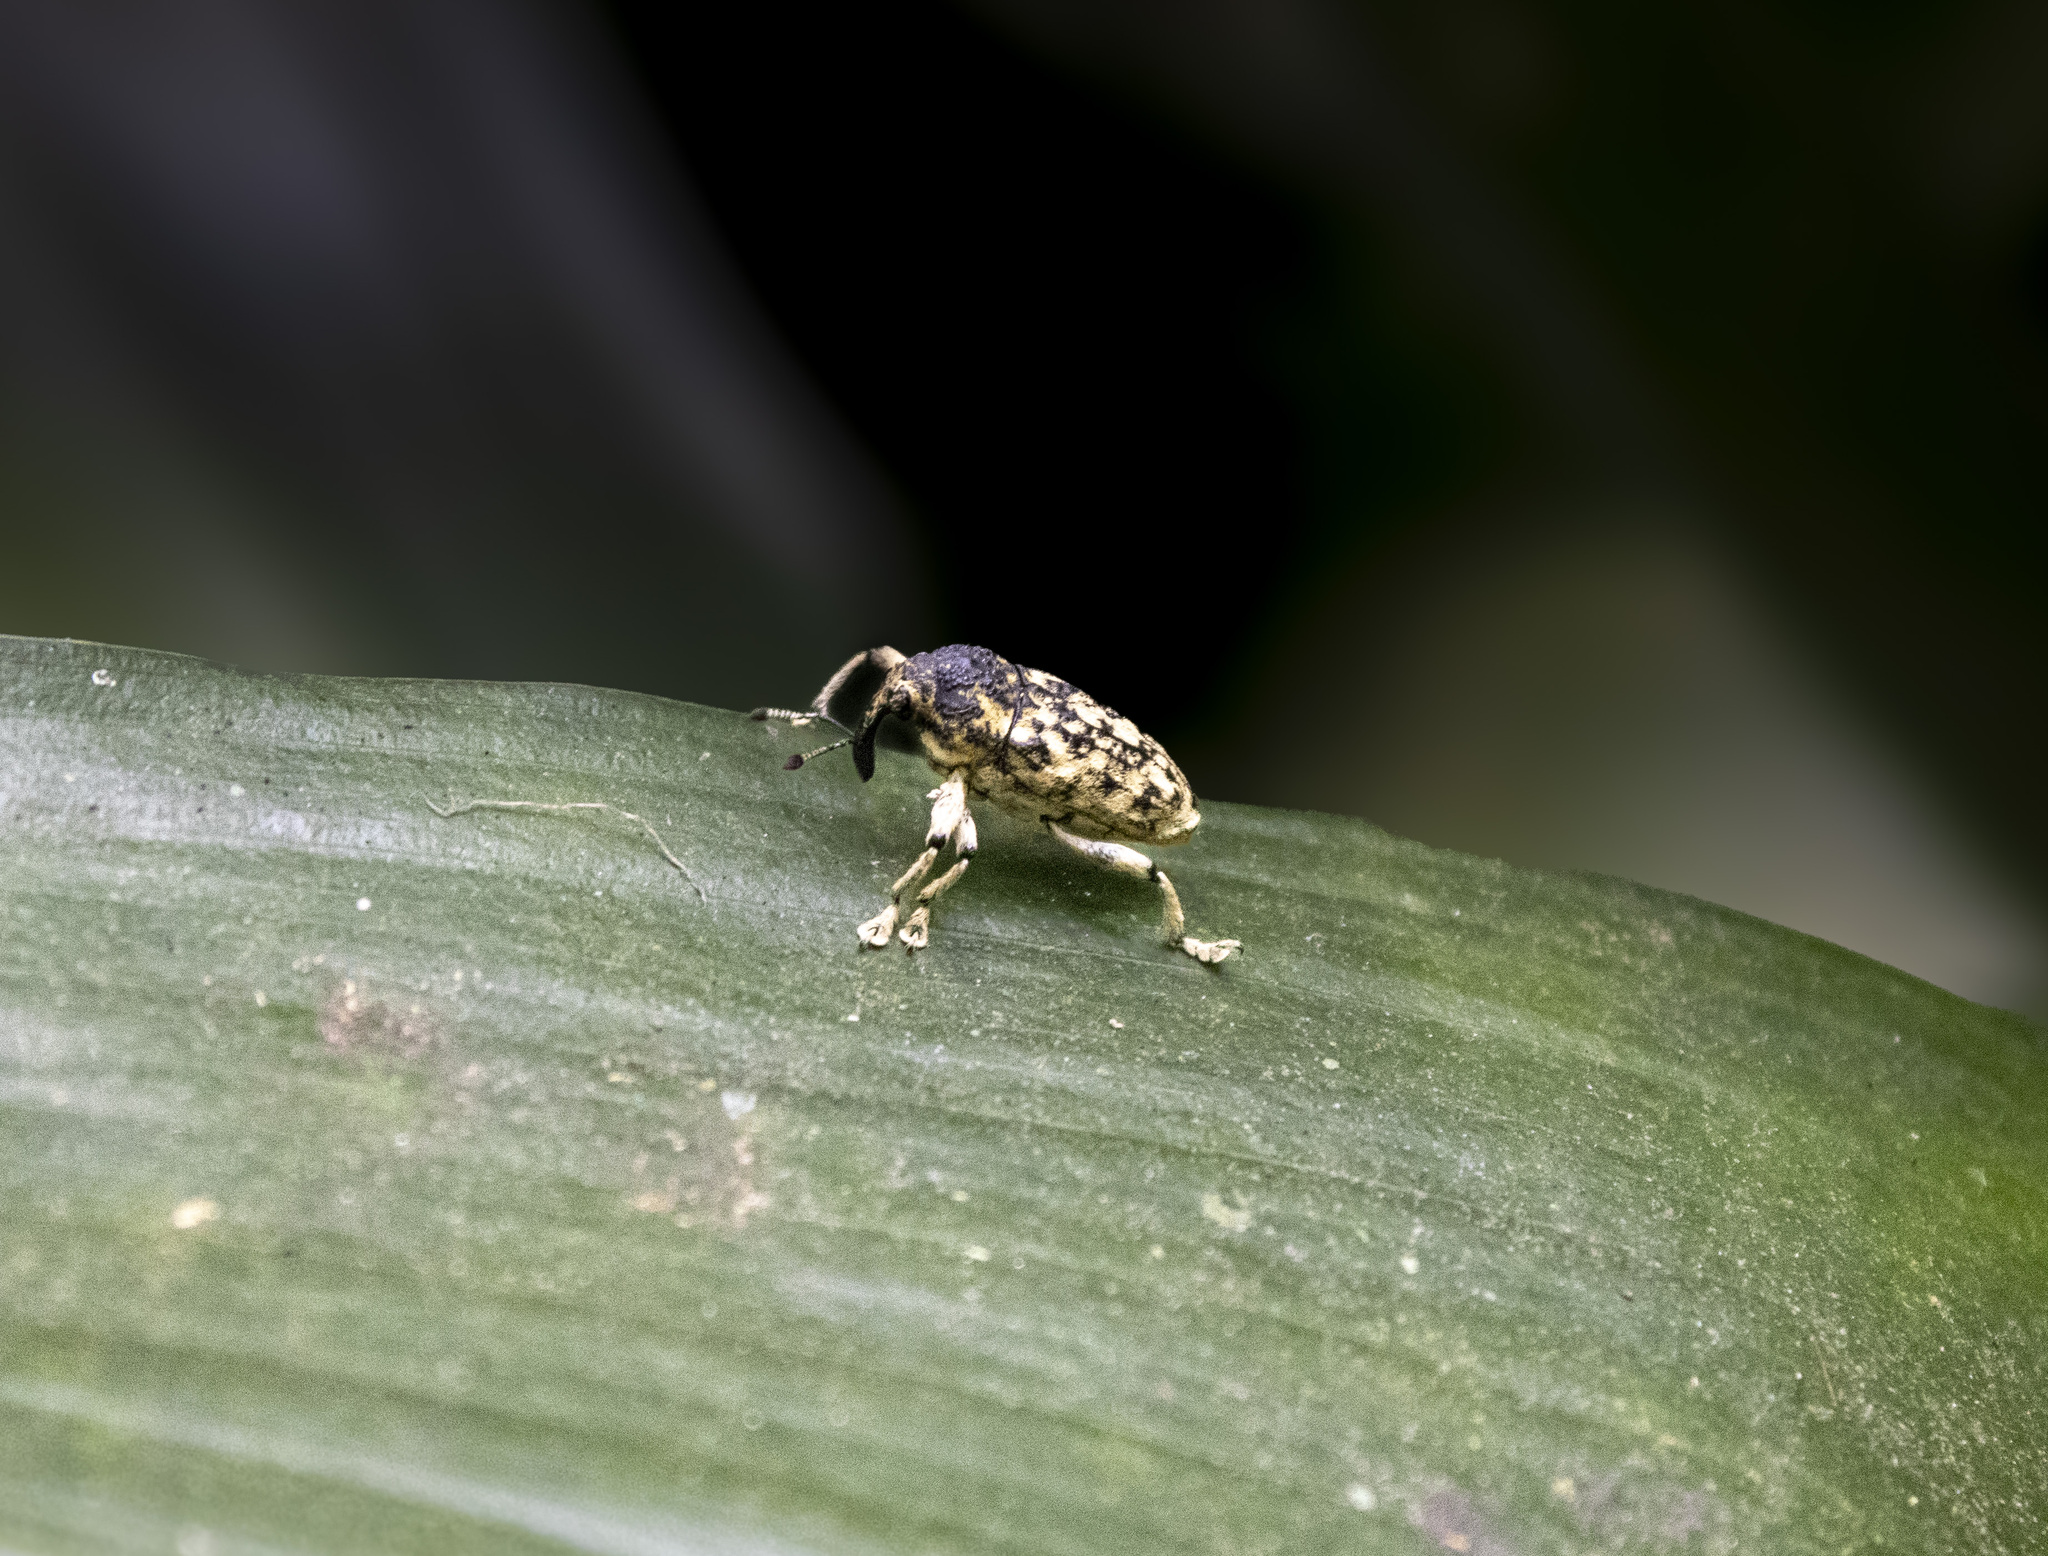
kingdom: Animalia
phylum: Arthropoda
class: Insecta
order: Coleoptera
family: Curculionidae
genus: Amerhinus
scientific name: Amerhinus olivieri
